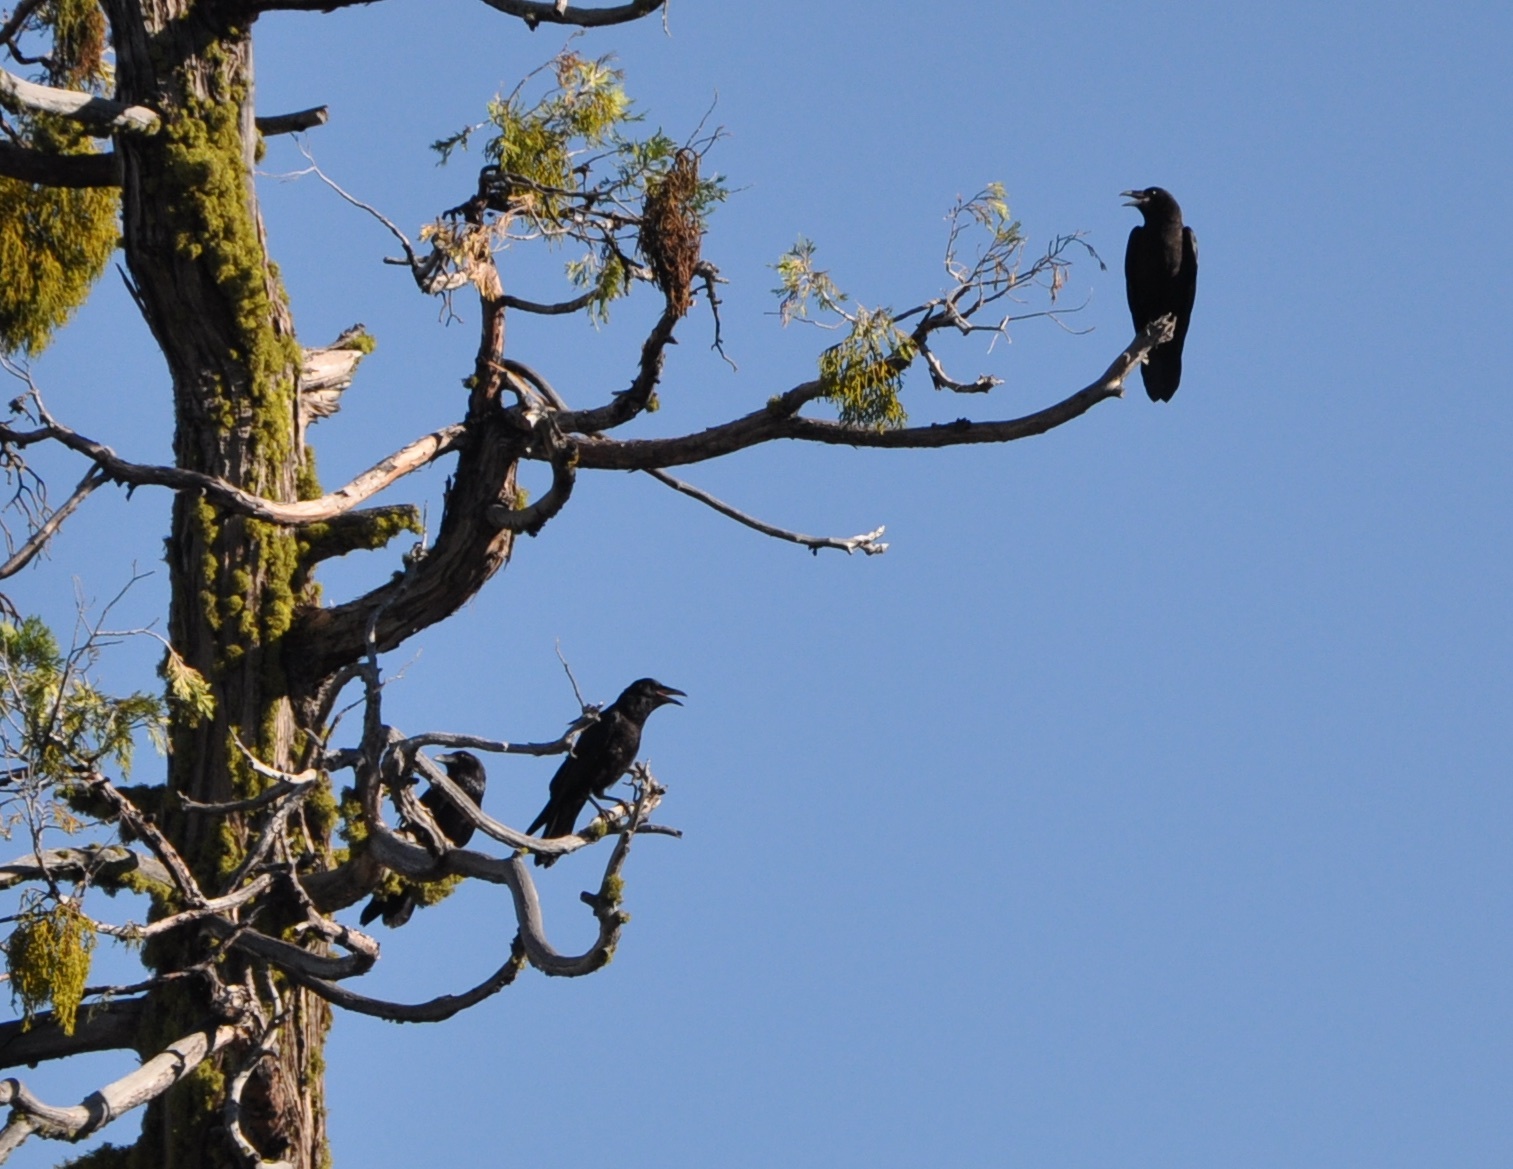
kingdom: Animalia
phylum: Chordata
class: Aves
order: Passeriformes
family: Corvidae
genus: Corvus
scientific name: Corvus corax
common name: Common raven
